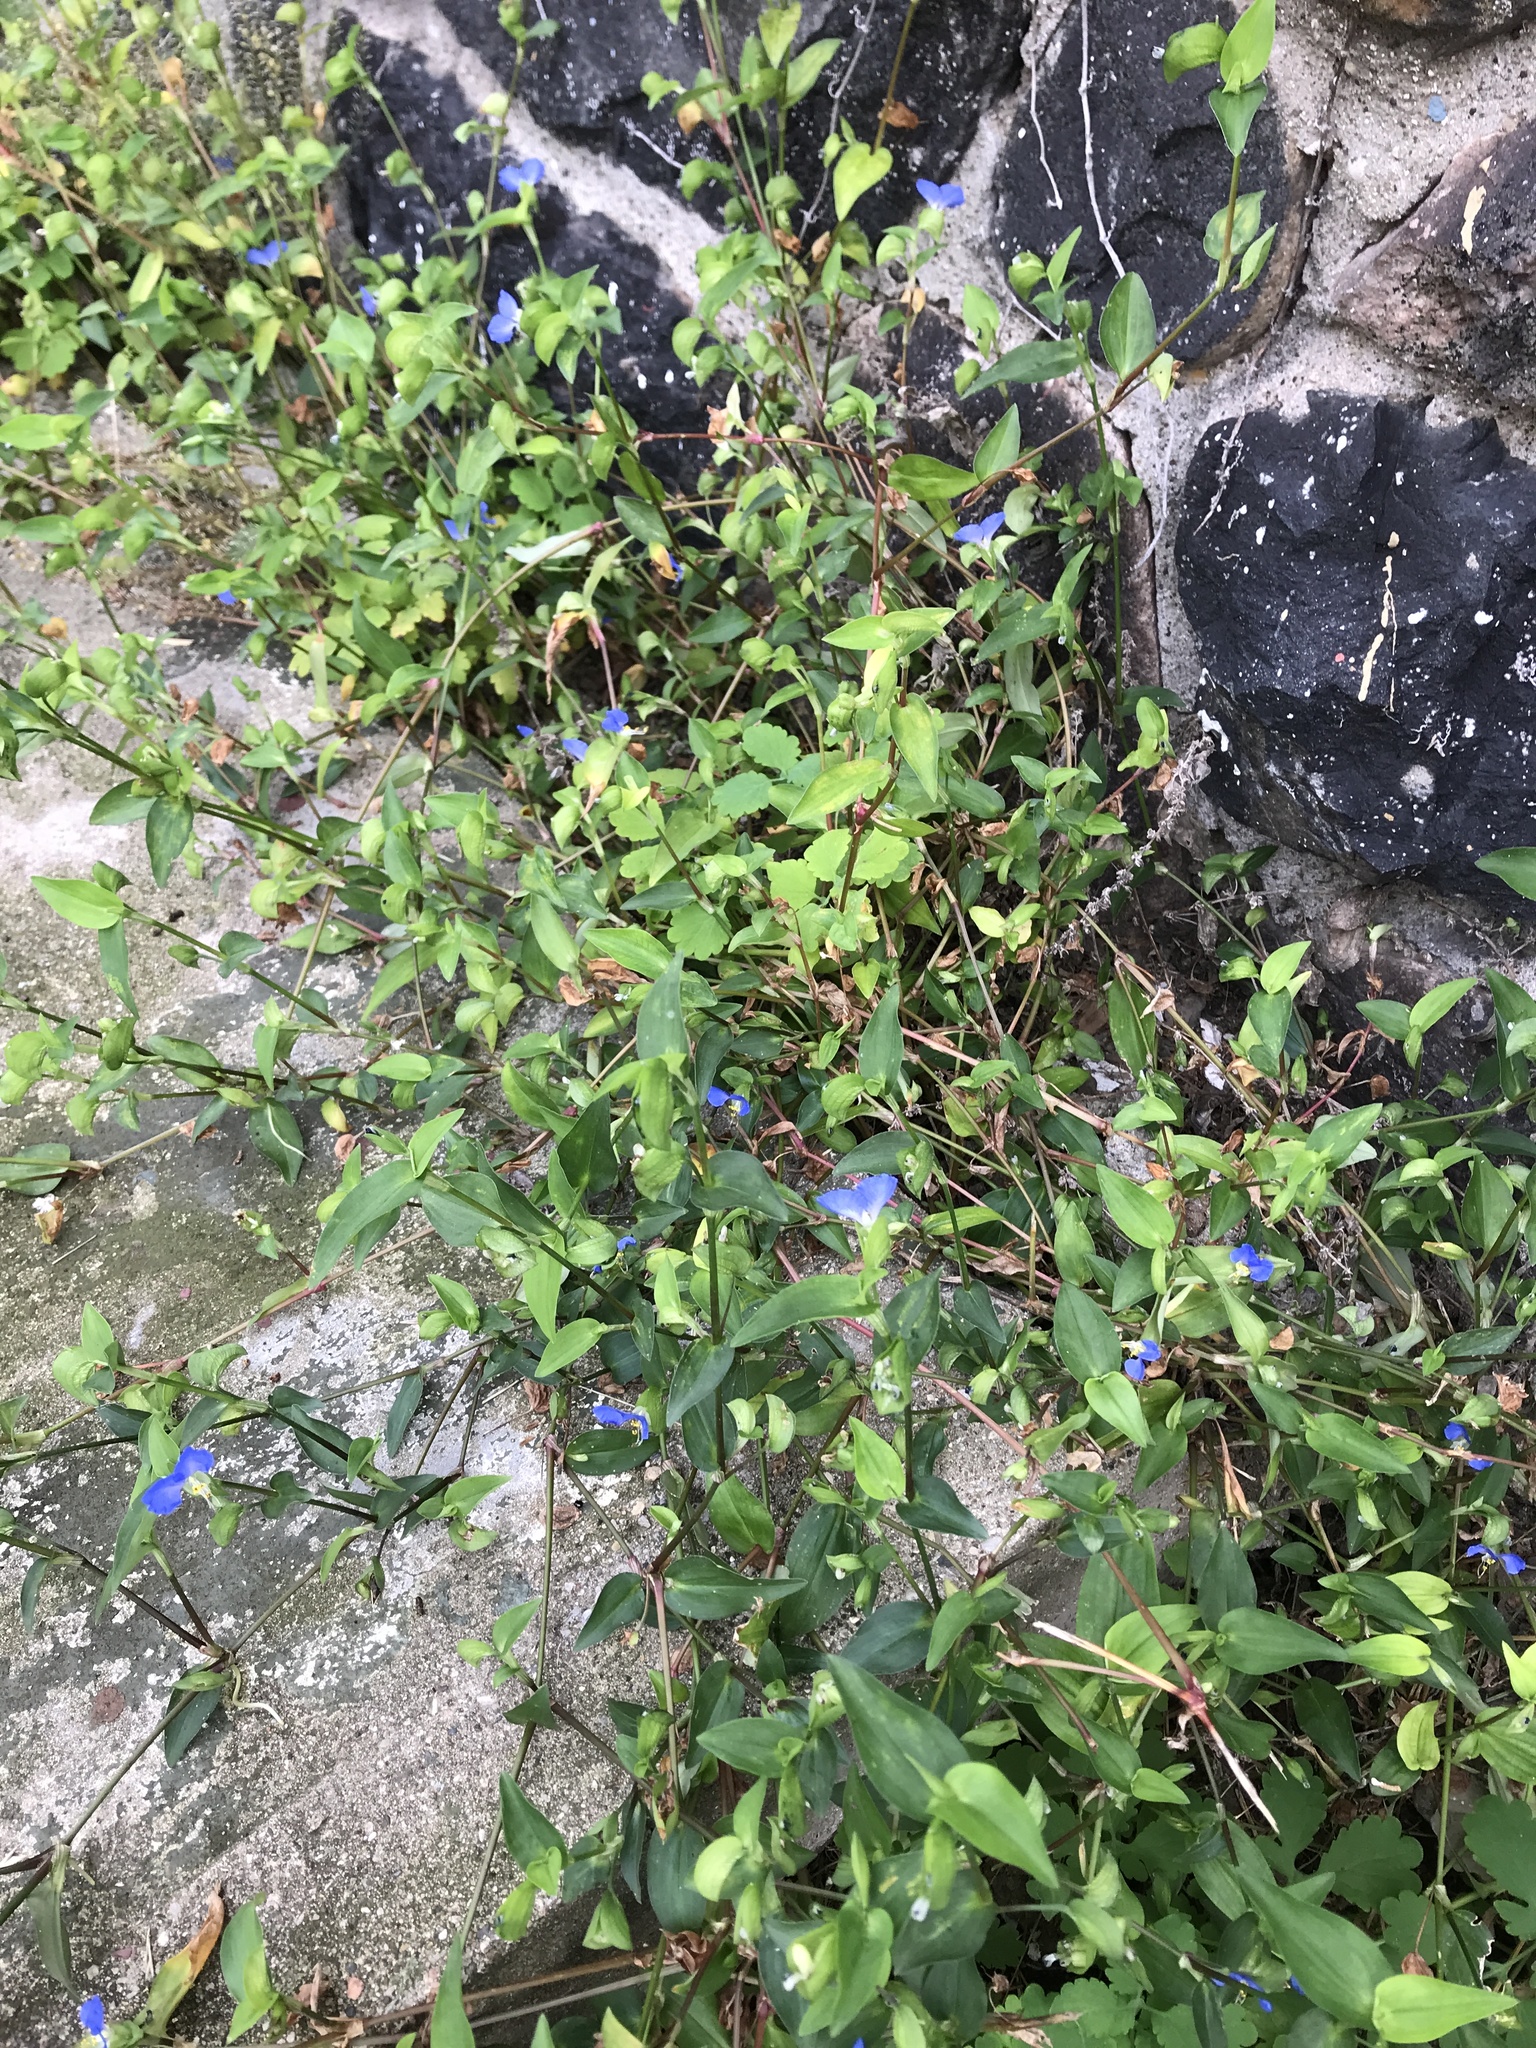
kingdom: Plantae
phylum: Tracheophyta
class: Liliopsida
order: Commelinales
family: Commelinaceae
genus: Commelina
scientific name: Commelina communis
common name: Asiatic dayflower
